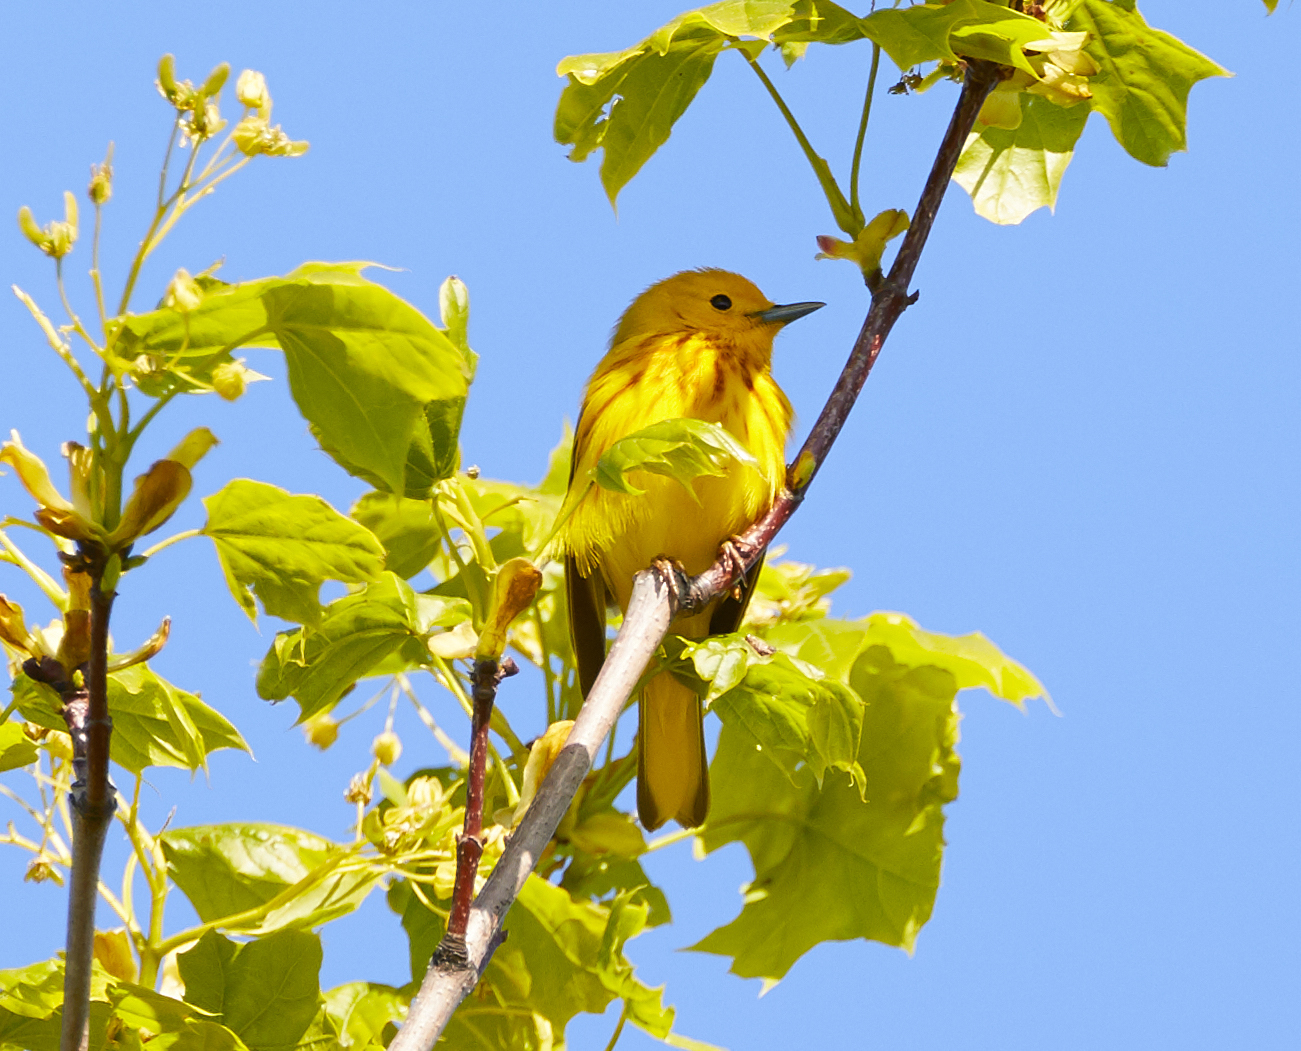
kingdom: Animalia
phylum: Chordata
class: Aves
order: Passeriformes
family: Parulidae
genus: Setophaga
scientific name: Setophaga petechia
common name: Yellow warbler
